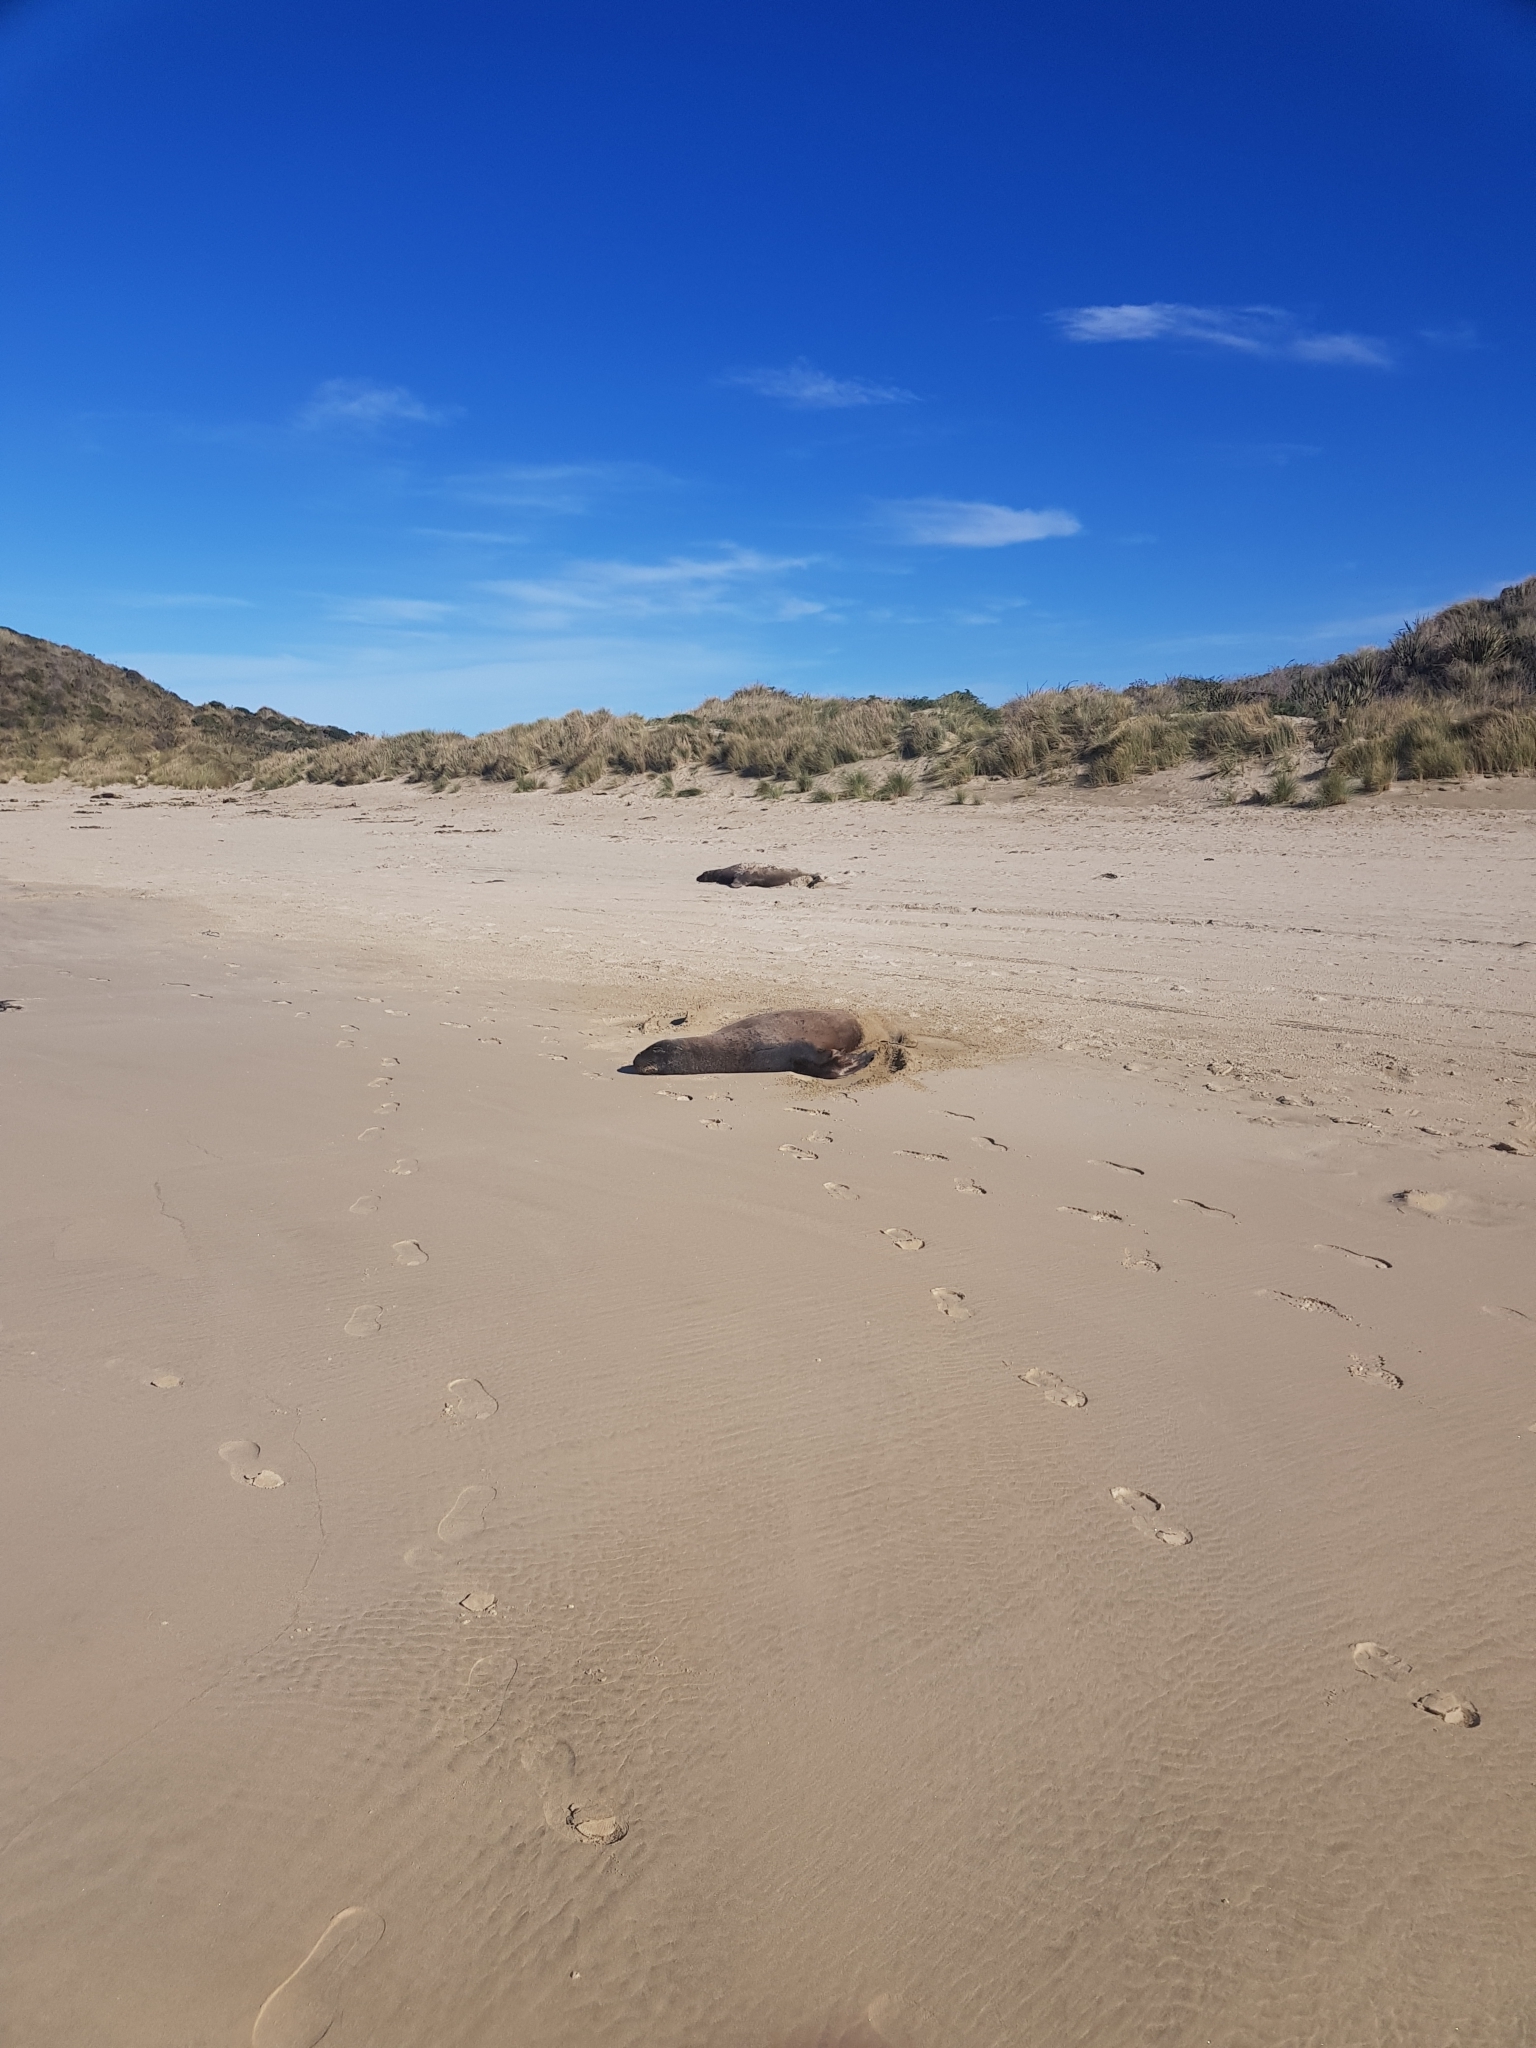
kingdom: Animalia
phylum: Chordata
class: Mammalia
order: Carnivora
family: Otariidae
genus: Phocarctos
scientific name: Phocarctos hookeri
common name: New zealand sea lion
